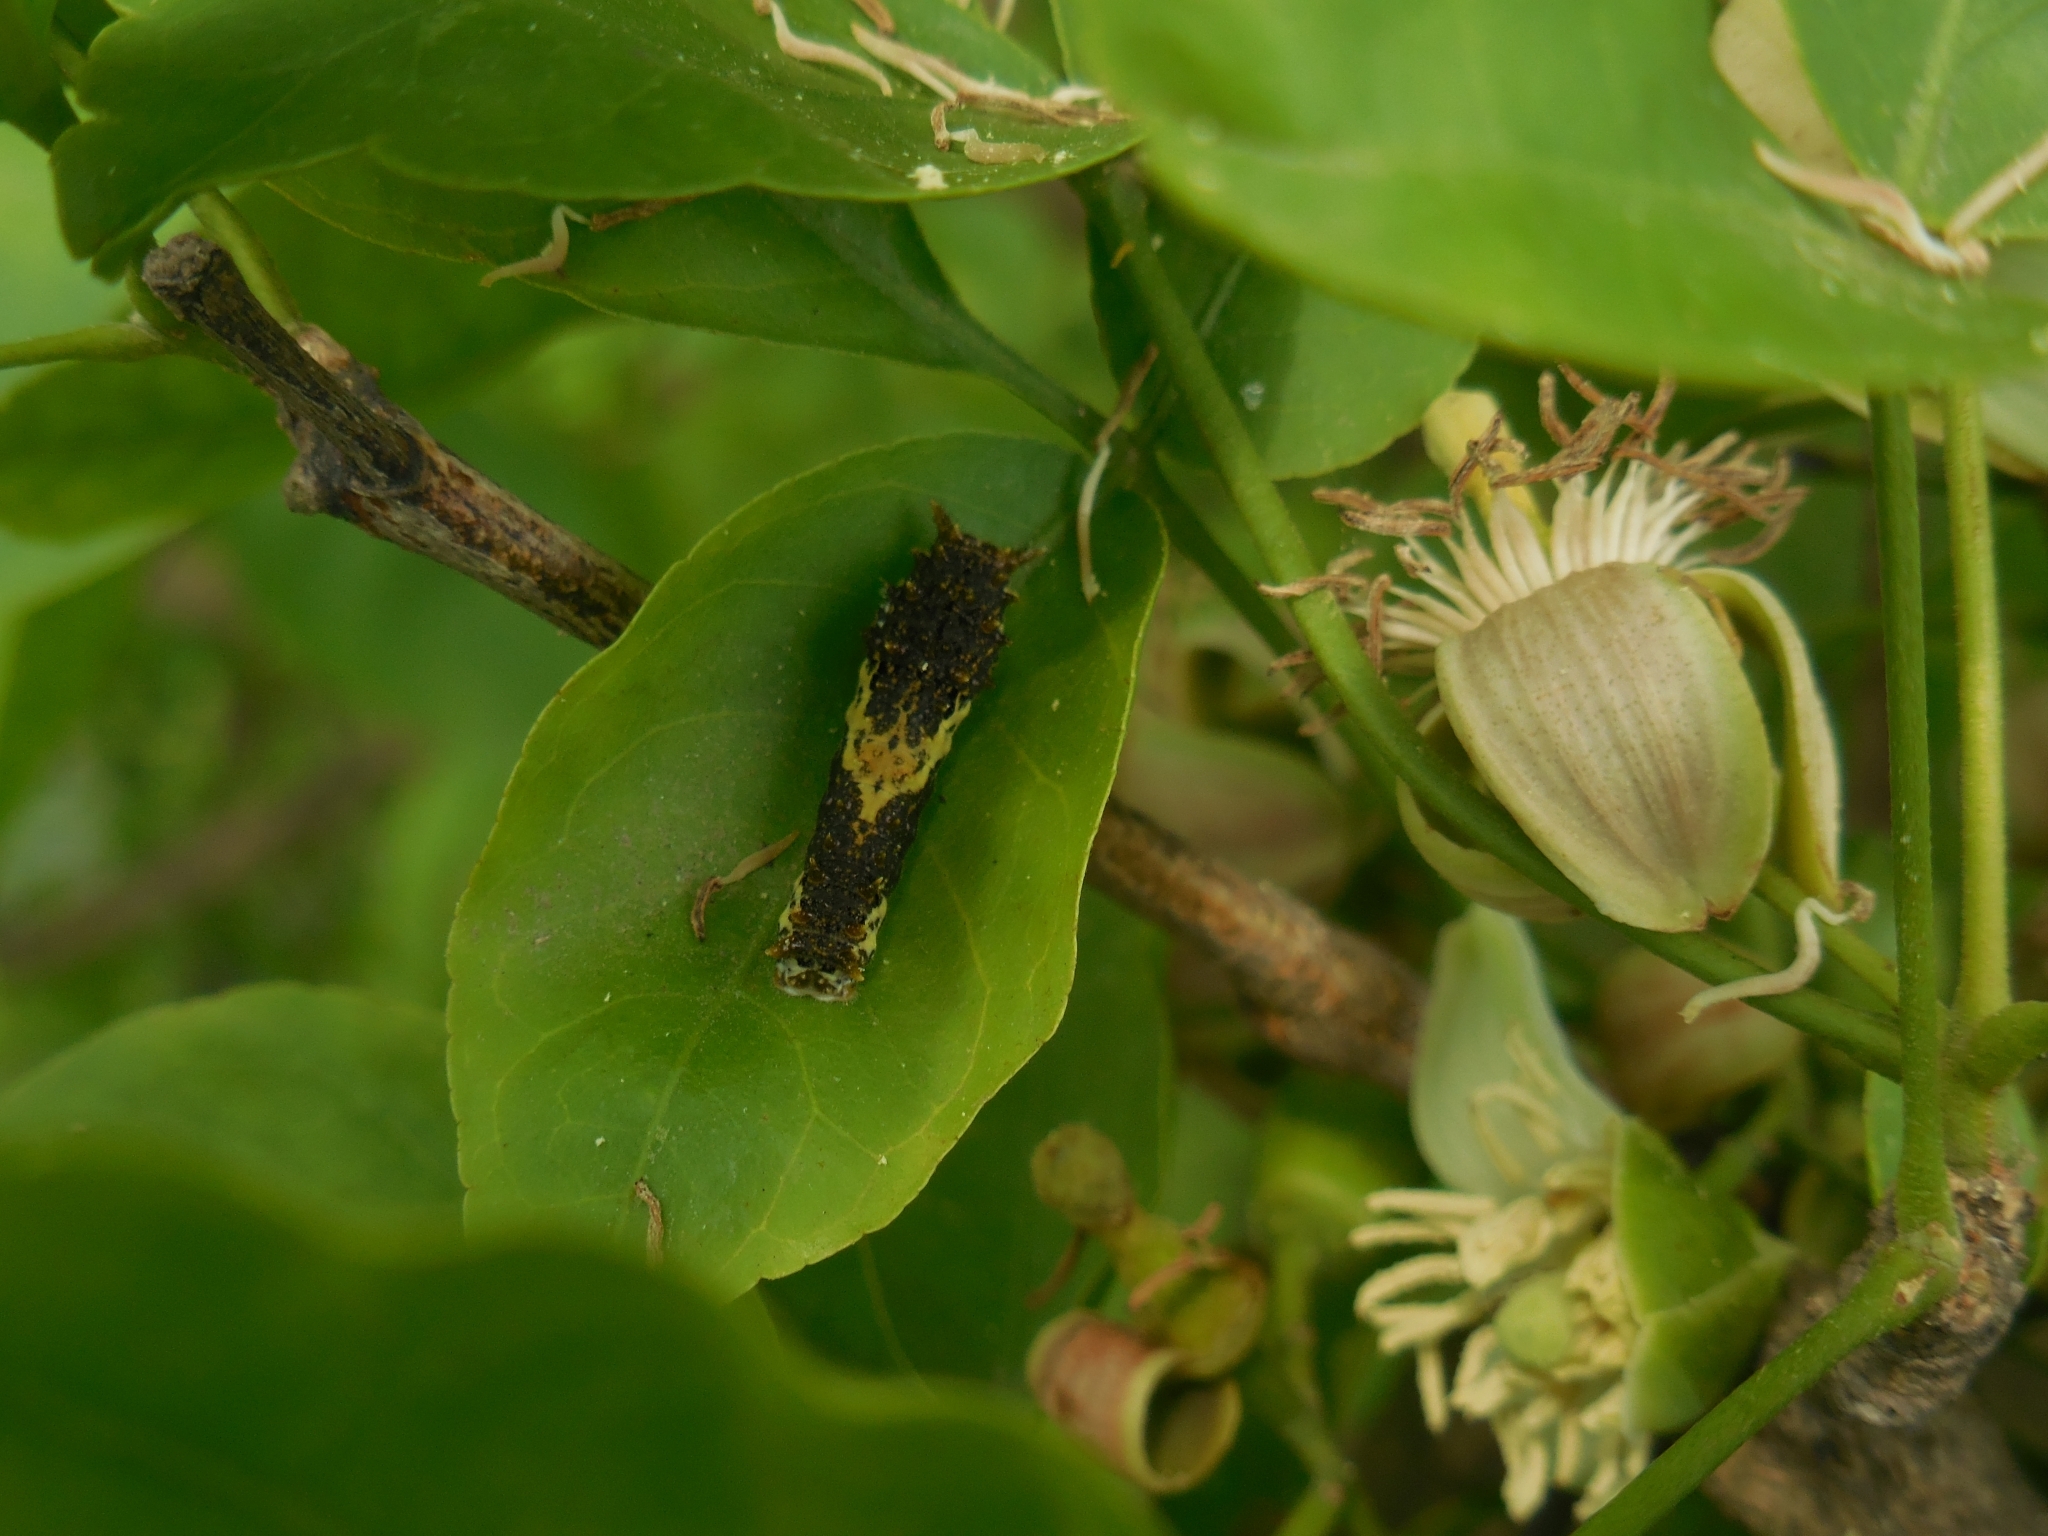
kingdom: Animalia
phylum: Arthropoda
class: Insecta
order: Lepidoptera
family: Papilionidae
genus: Papilio
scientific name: Papilio demoleus
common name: Lime butterfly
